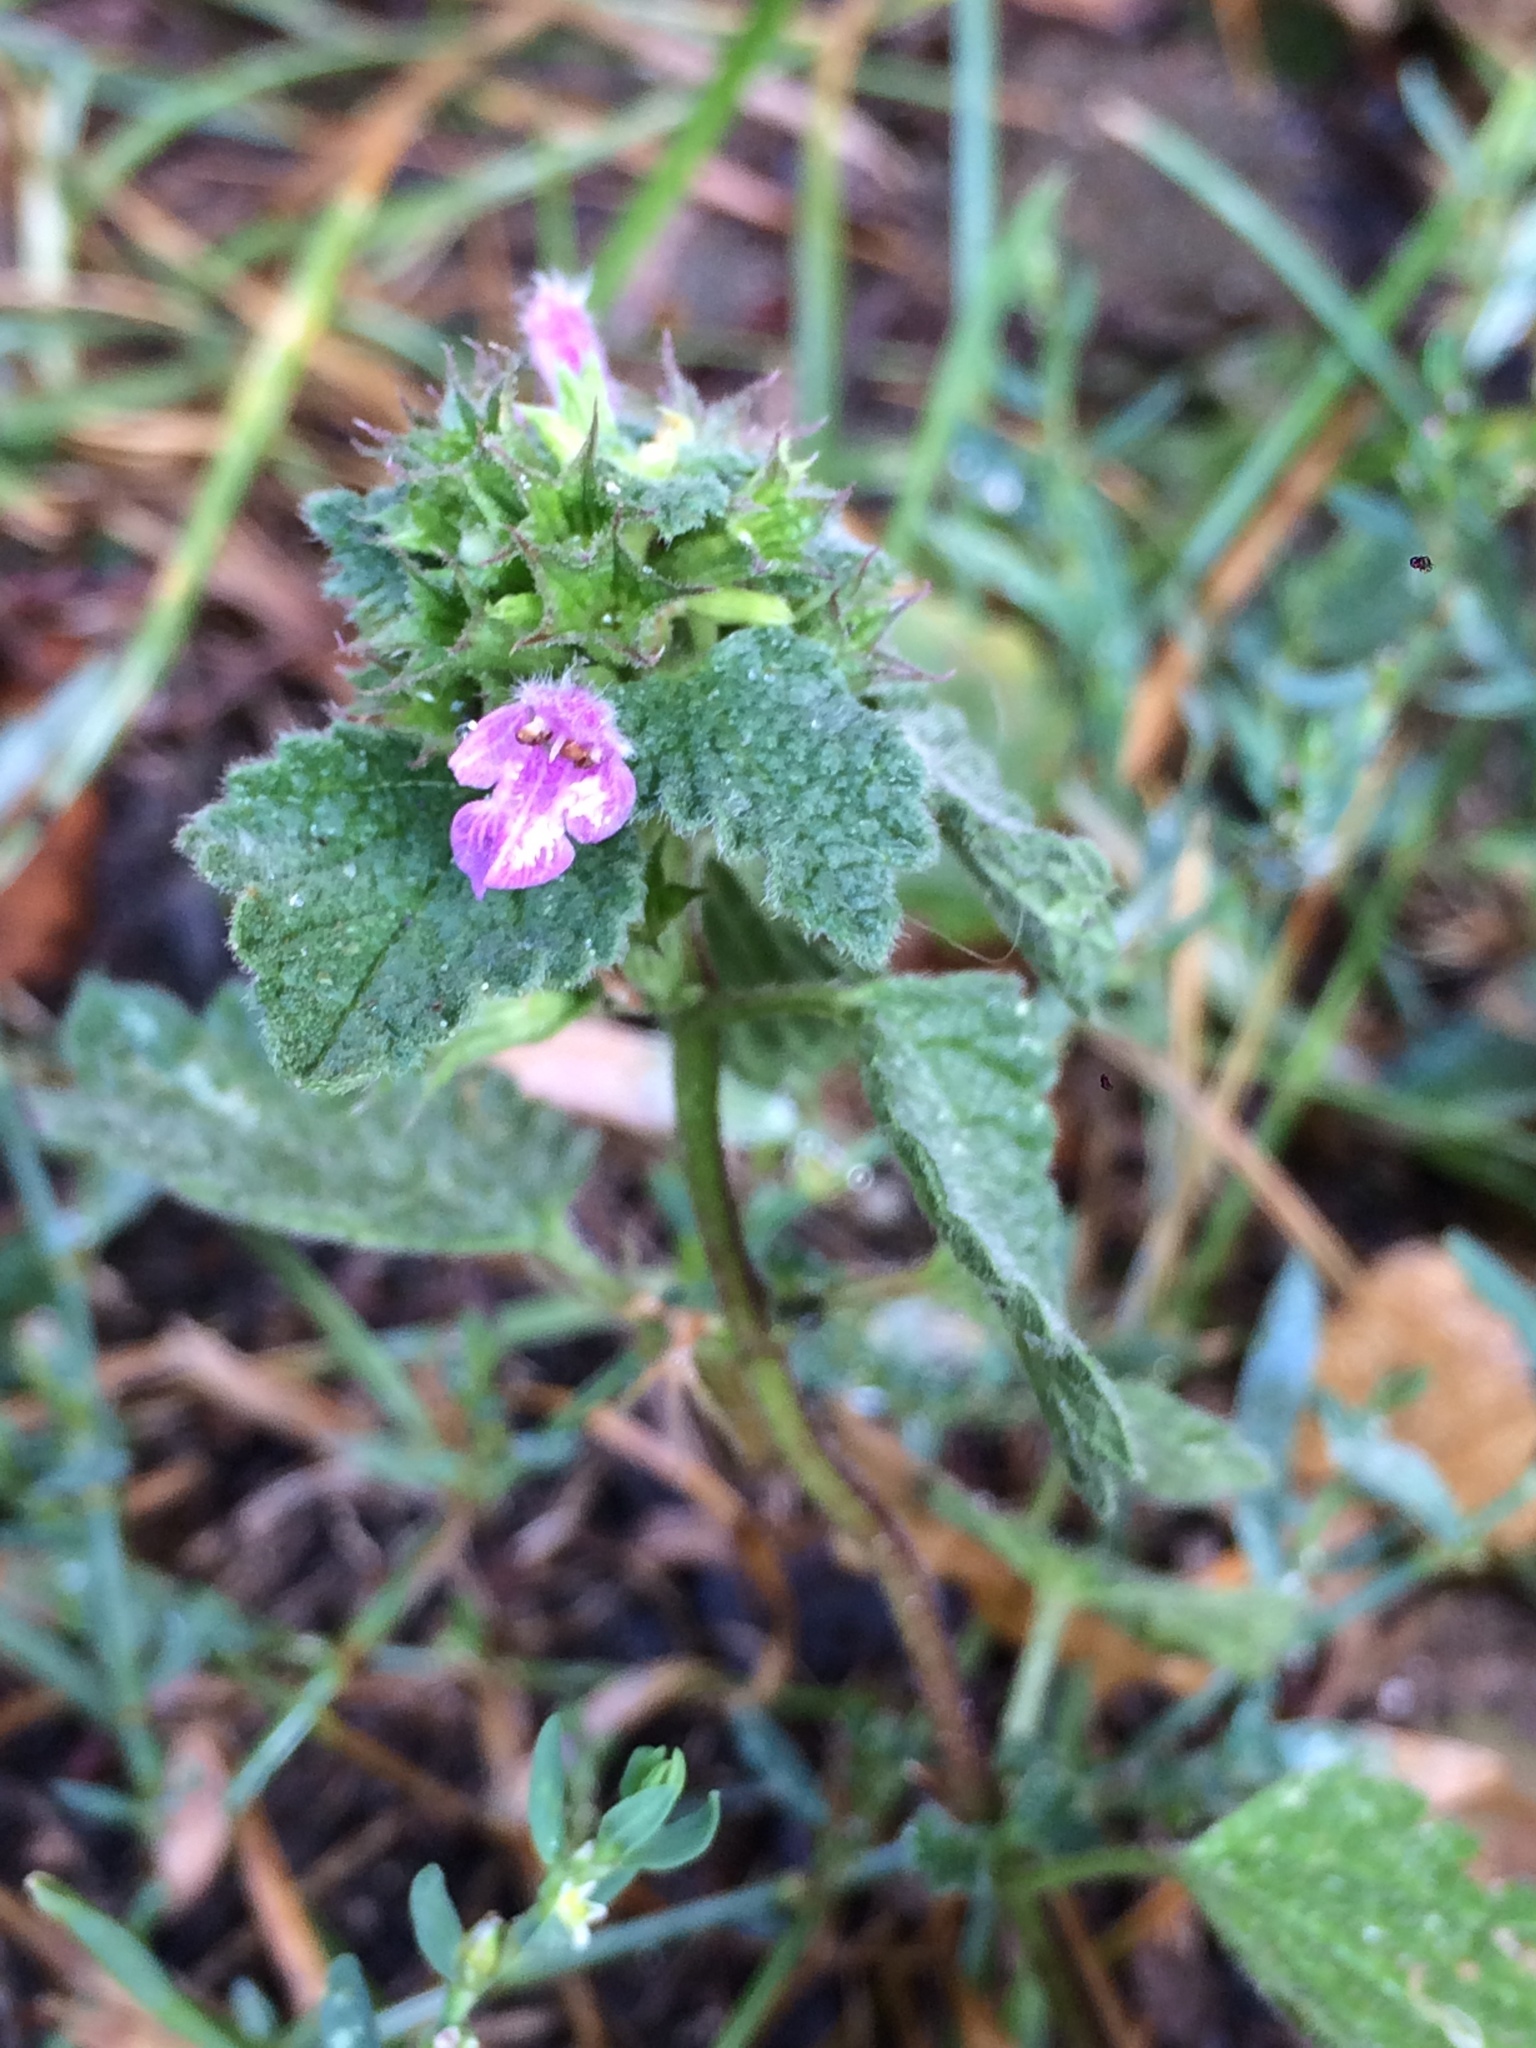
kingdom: Plantae
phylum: Tracheophyta
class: Magnoliopsida
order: Lamiales
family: Lamiaceae
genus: Ballota
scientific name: Ballota nigra
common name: Black horehound
